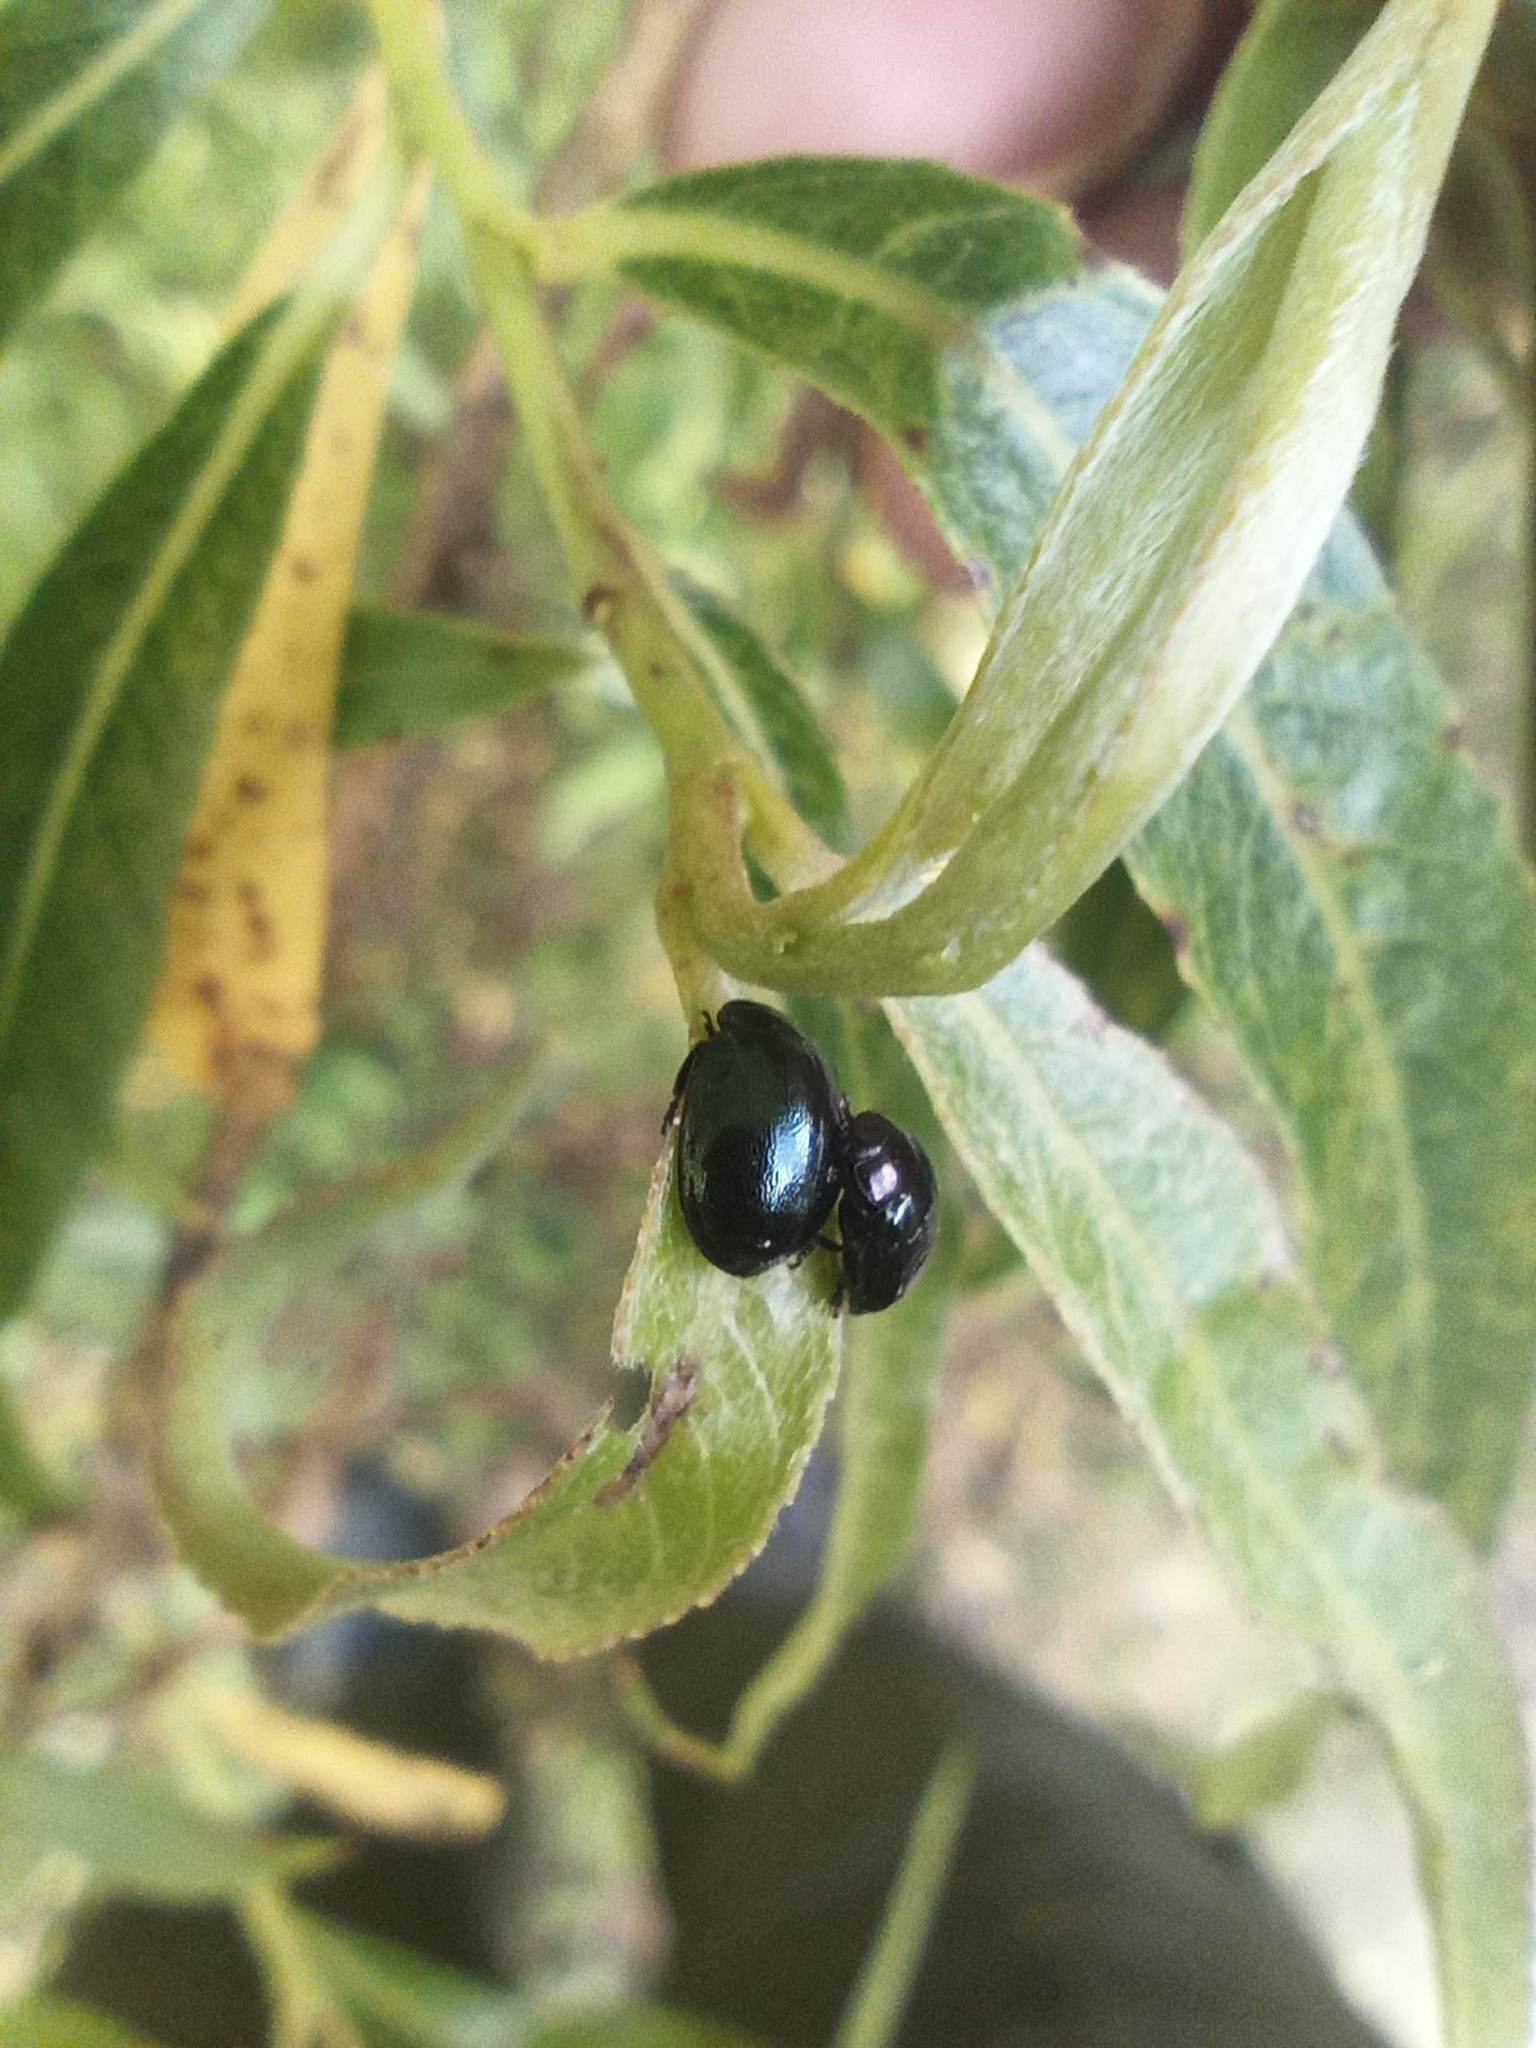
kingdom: Animalia
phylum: Arthropoda
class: Insecta
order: Coleoptera
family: Chrysomelidae
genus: Plagiodera
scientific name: Plagiodera versicolora
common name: Imported willow leaf beetle
